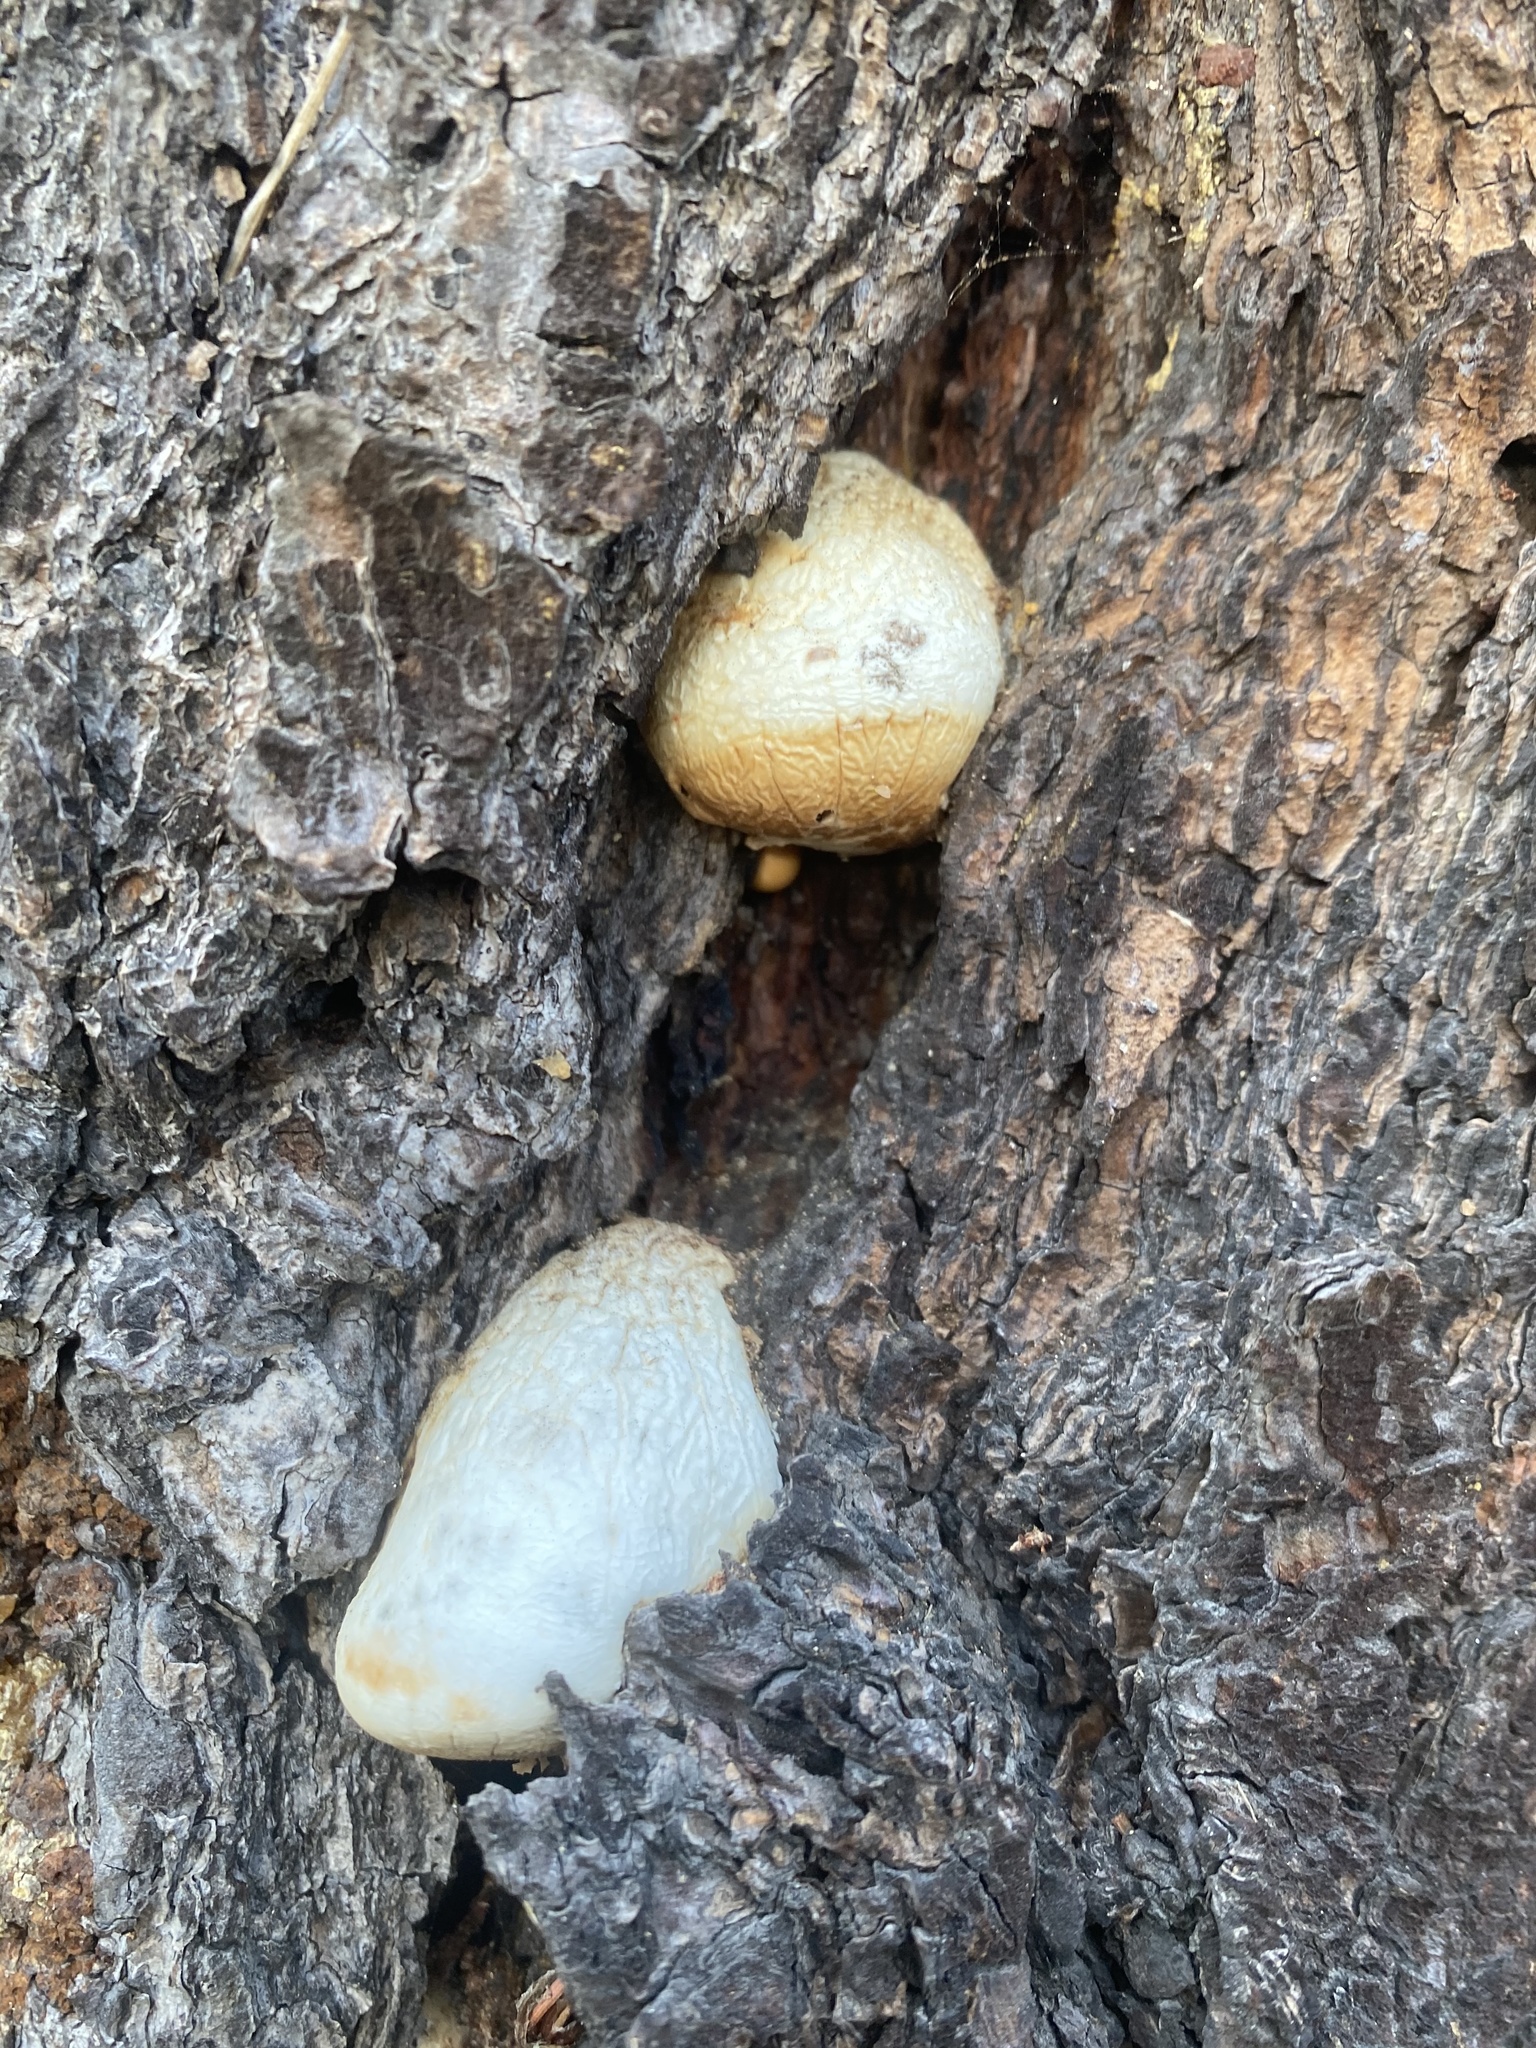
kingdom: Fungi
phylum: Basidiomycota
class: Agaricomycetes
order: Polyporales
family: Polyporaceae
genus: Cryptoporus
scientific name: Cryptoporus volvatus
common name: Veiled polypore
